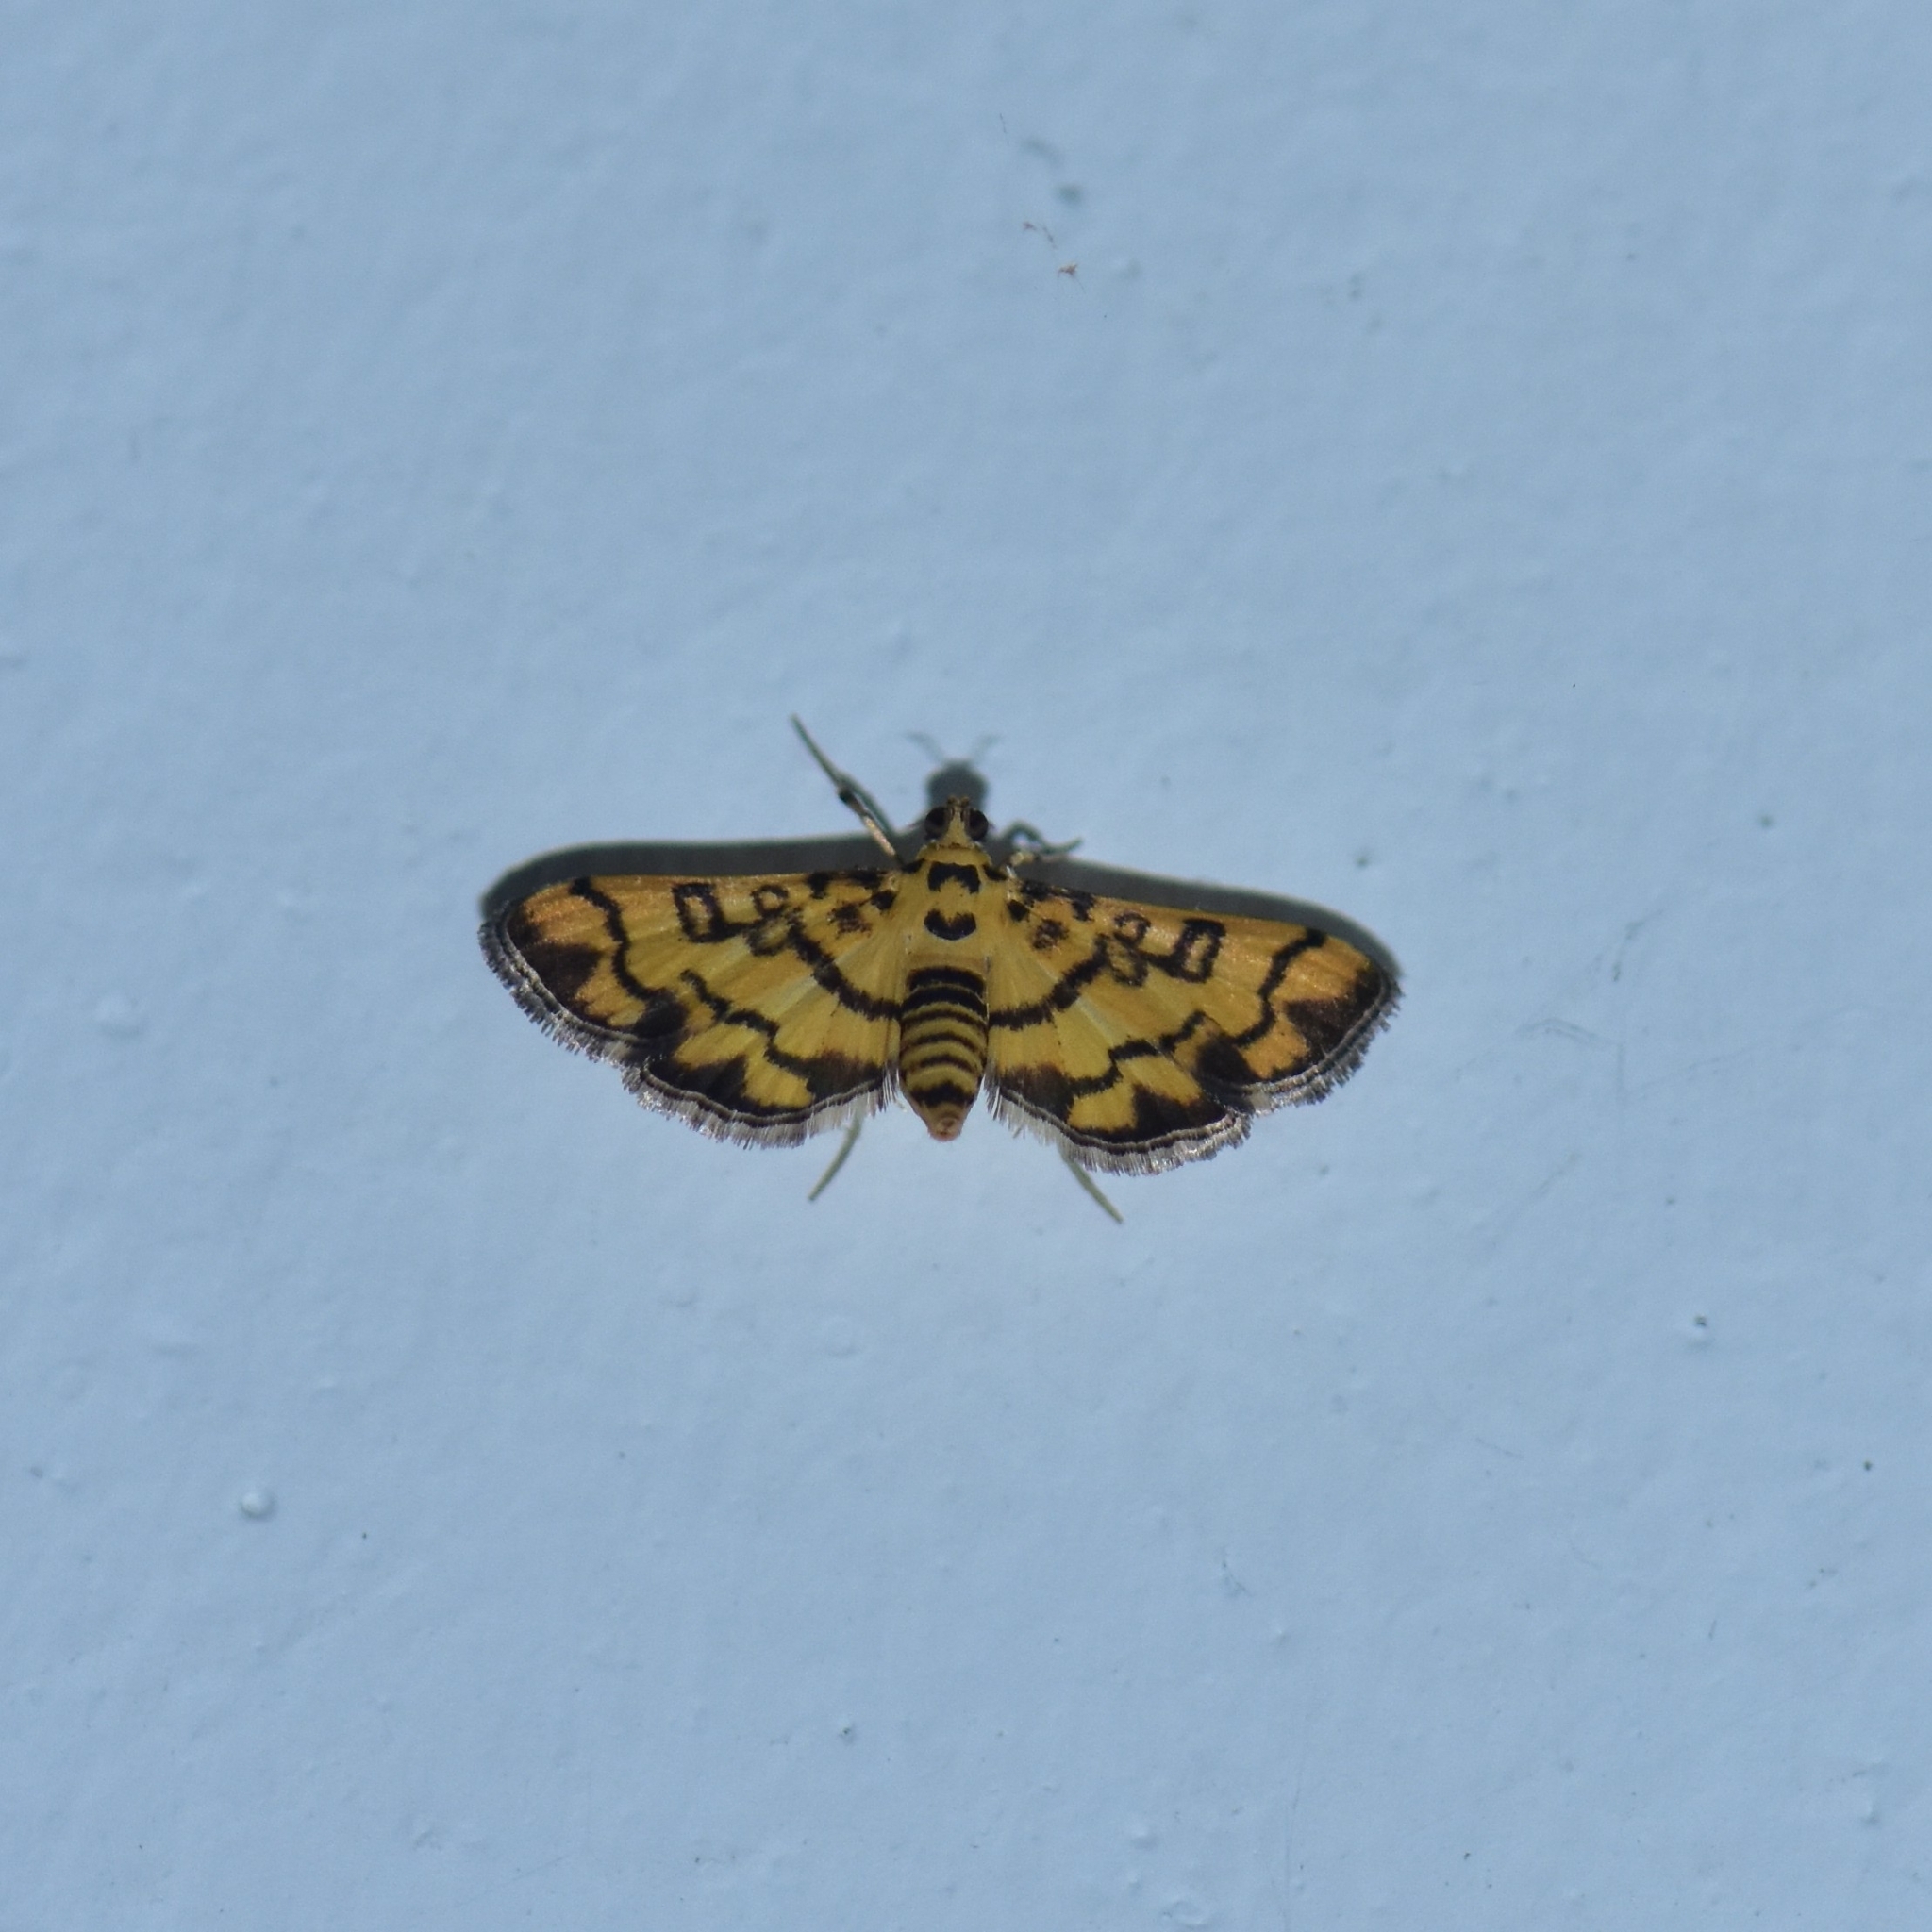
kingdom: Animalia
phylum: Arthropoda
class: Insecta
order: Lepidoptera
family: Crambidae
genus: Glycythyma
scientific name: Glycythyma chrysorycta
